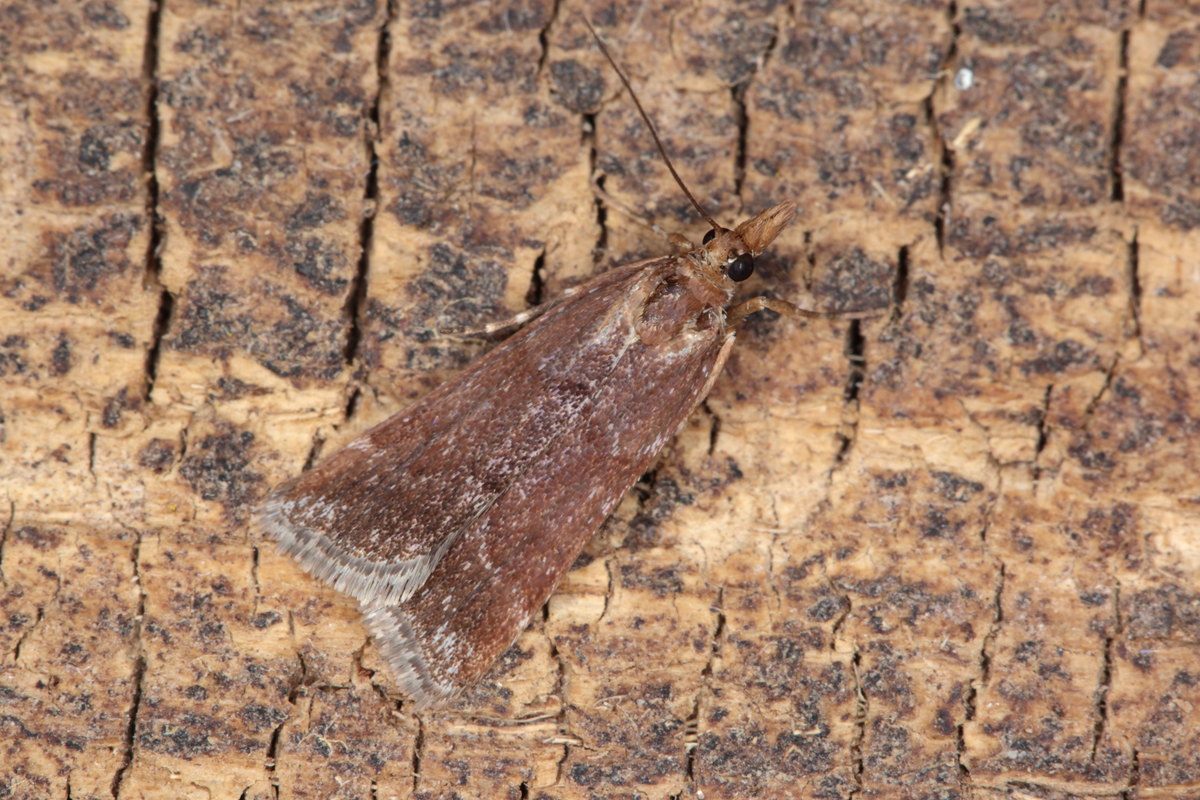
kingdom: Animalia
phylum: Arthropoda
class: Insecta
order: Lepidoptera
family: Crambidae
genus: Eudonia
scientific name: Eudonia feredayi
